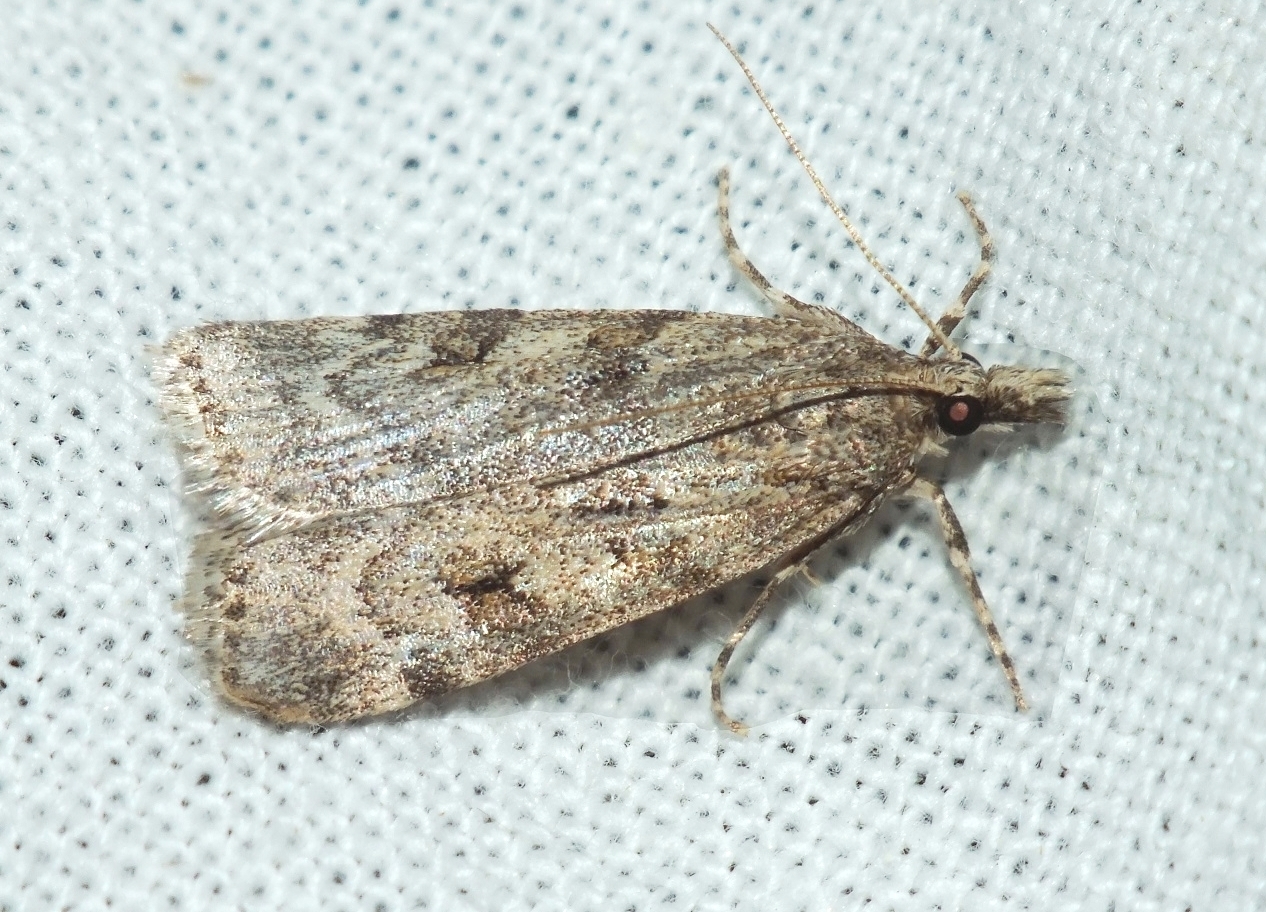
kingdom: Animalia
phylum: Arthropoda
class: Insecta
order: Lepidoptera
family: Crambidae
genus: Scoparia
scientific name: Scoparia cembrella
